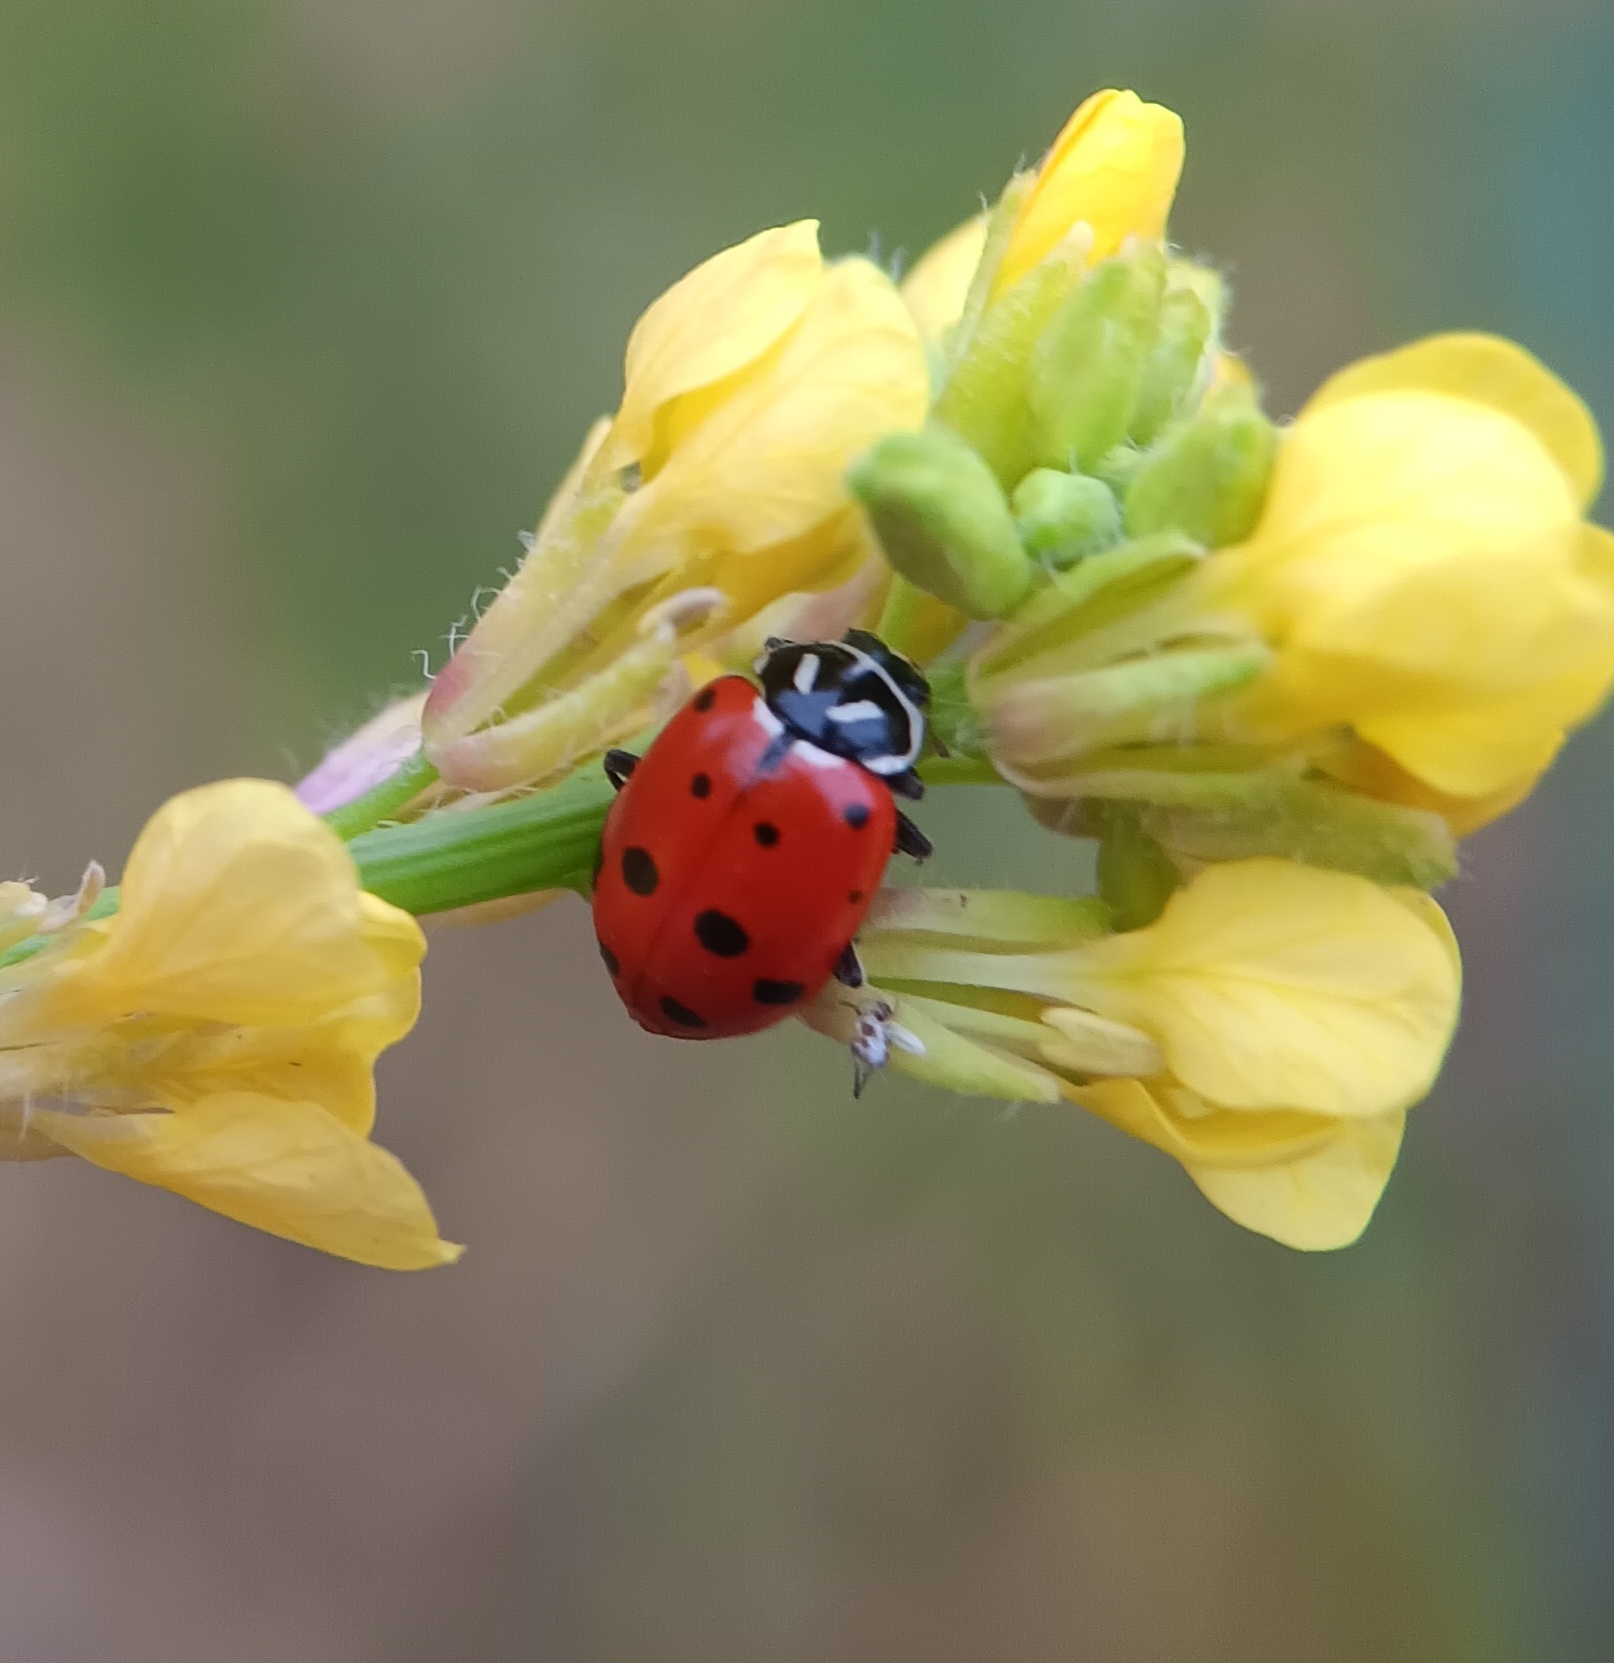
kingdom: Animalia
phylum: Arthropoda
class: Insecta
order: Coleoptera
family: Coccinellidae
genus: Hippodamia
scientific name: Hippodamia convergens
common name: Convergent lady beetle
